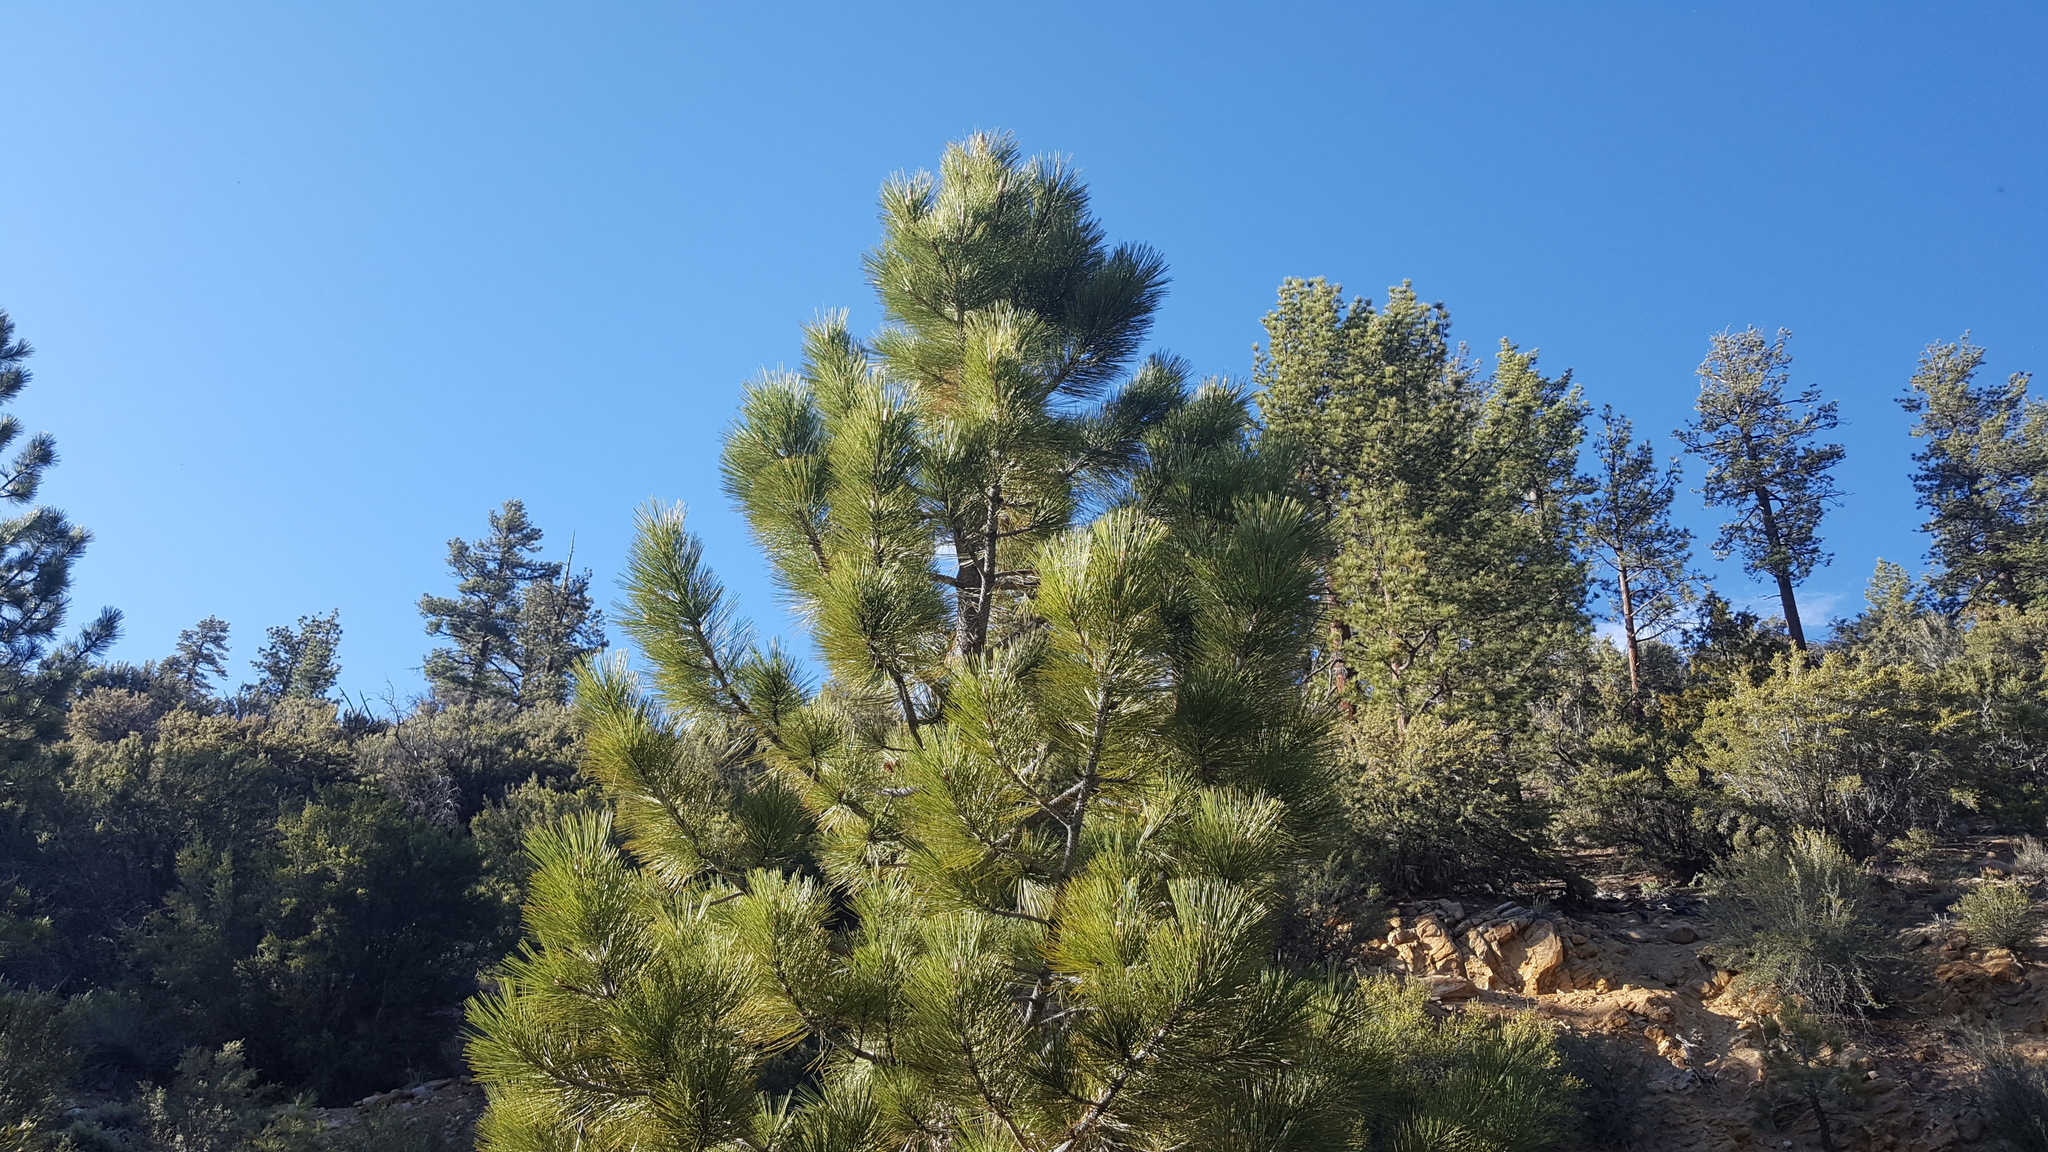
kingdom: Plantae
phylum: Tracheophyta
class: Pinopsida
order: Pinales
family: Pinaceae
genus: Pinus
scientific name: Pinus jeffreyi
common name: Jeffrey pine
